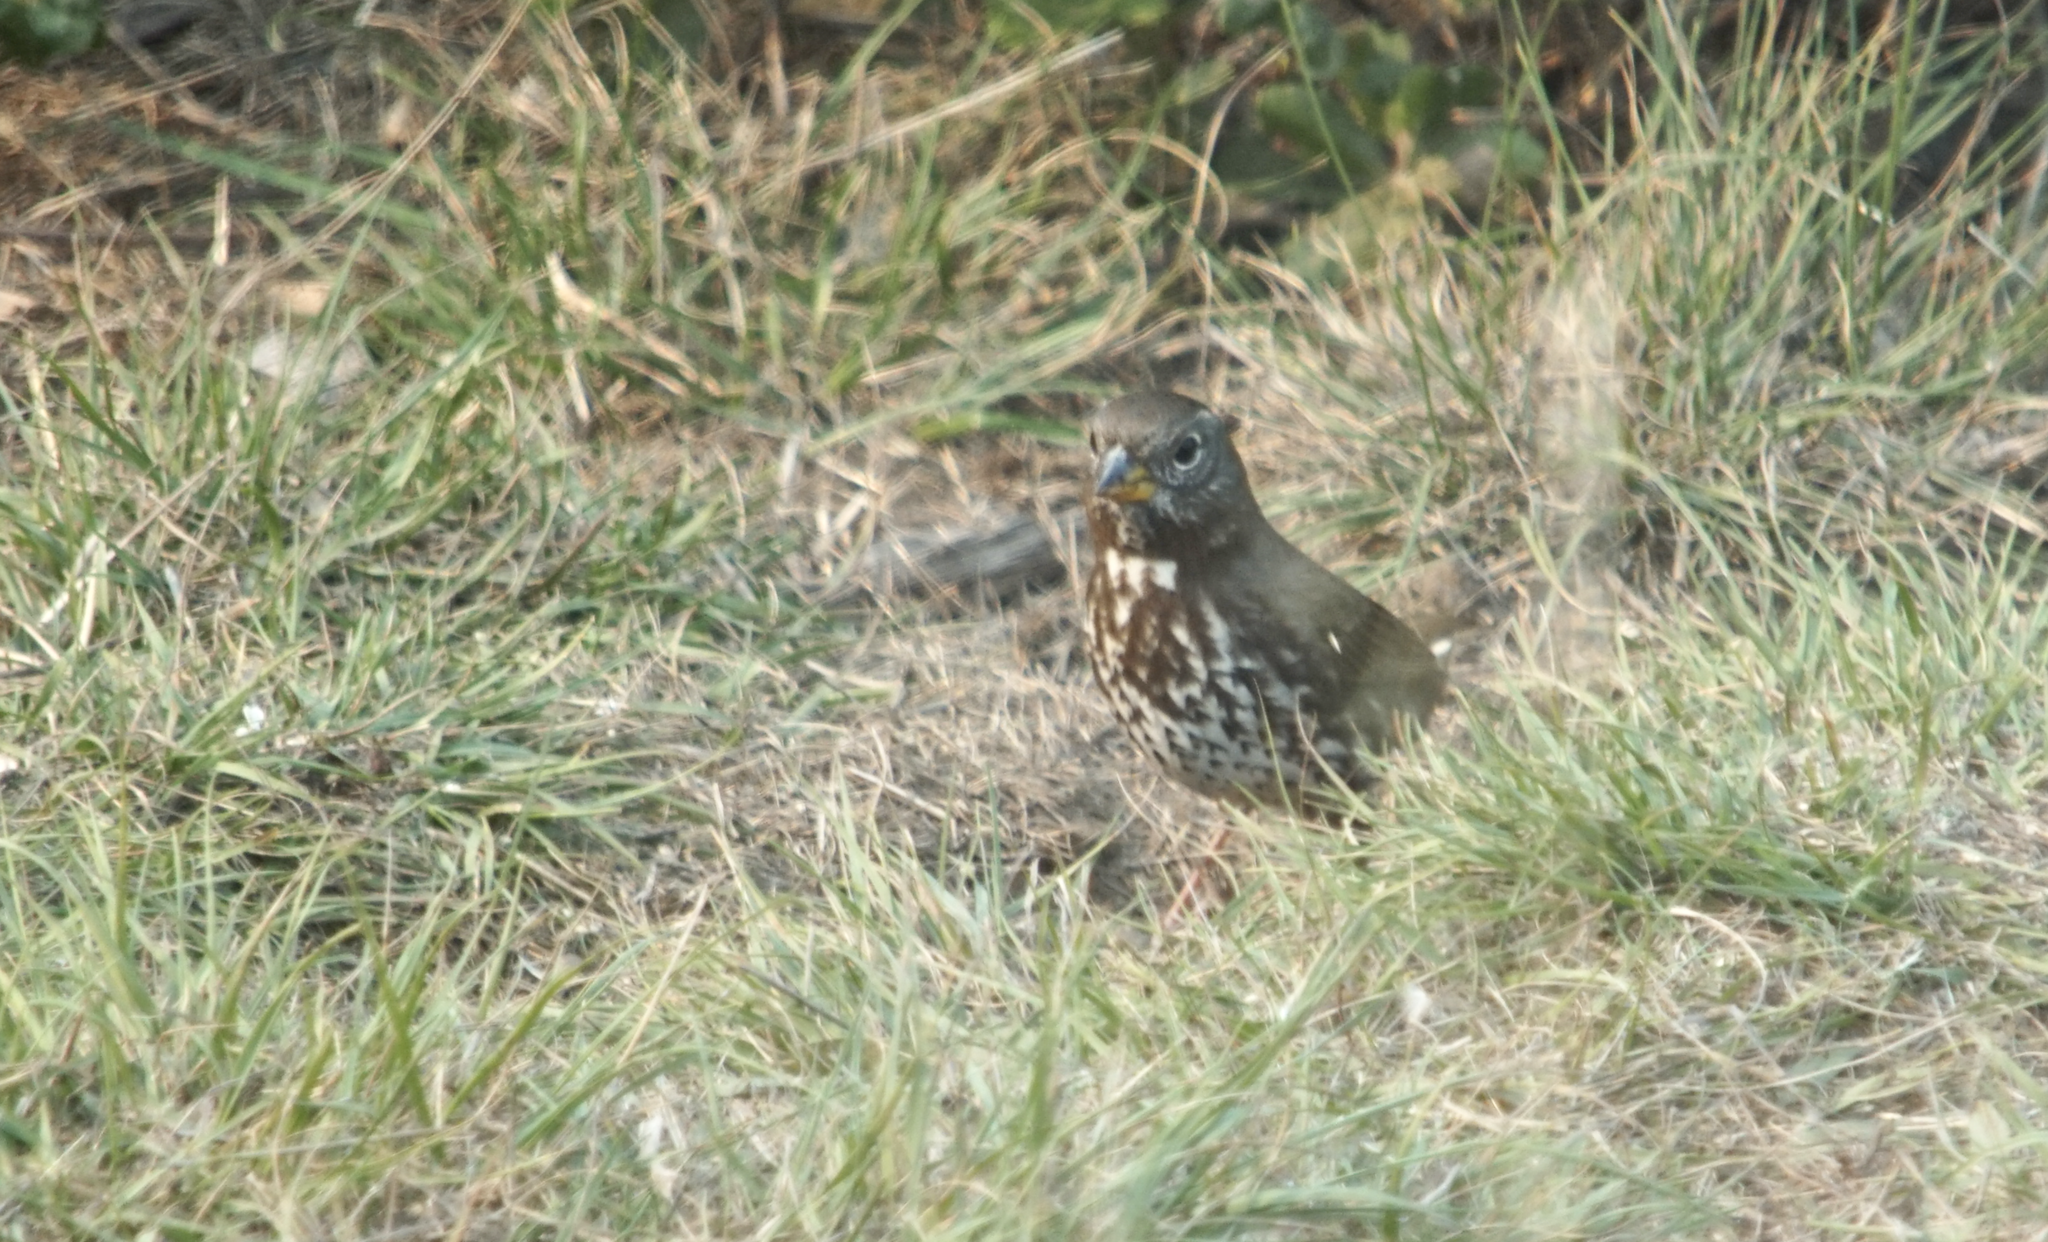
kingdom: Animalia
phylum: Chordata
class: Aves
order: Passeriformes
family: Passerellidae
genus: Passerella
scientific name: Passerella iliaca
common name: Fox sparrow
